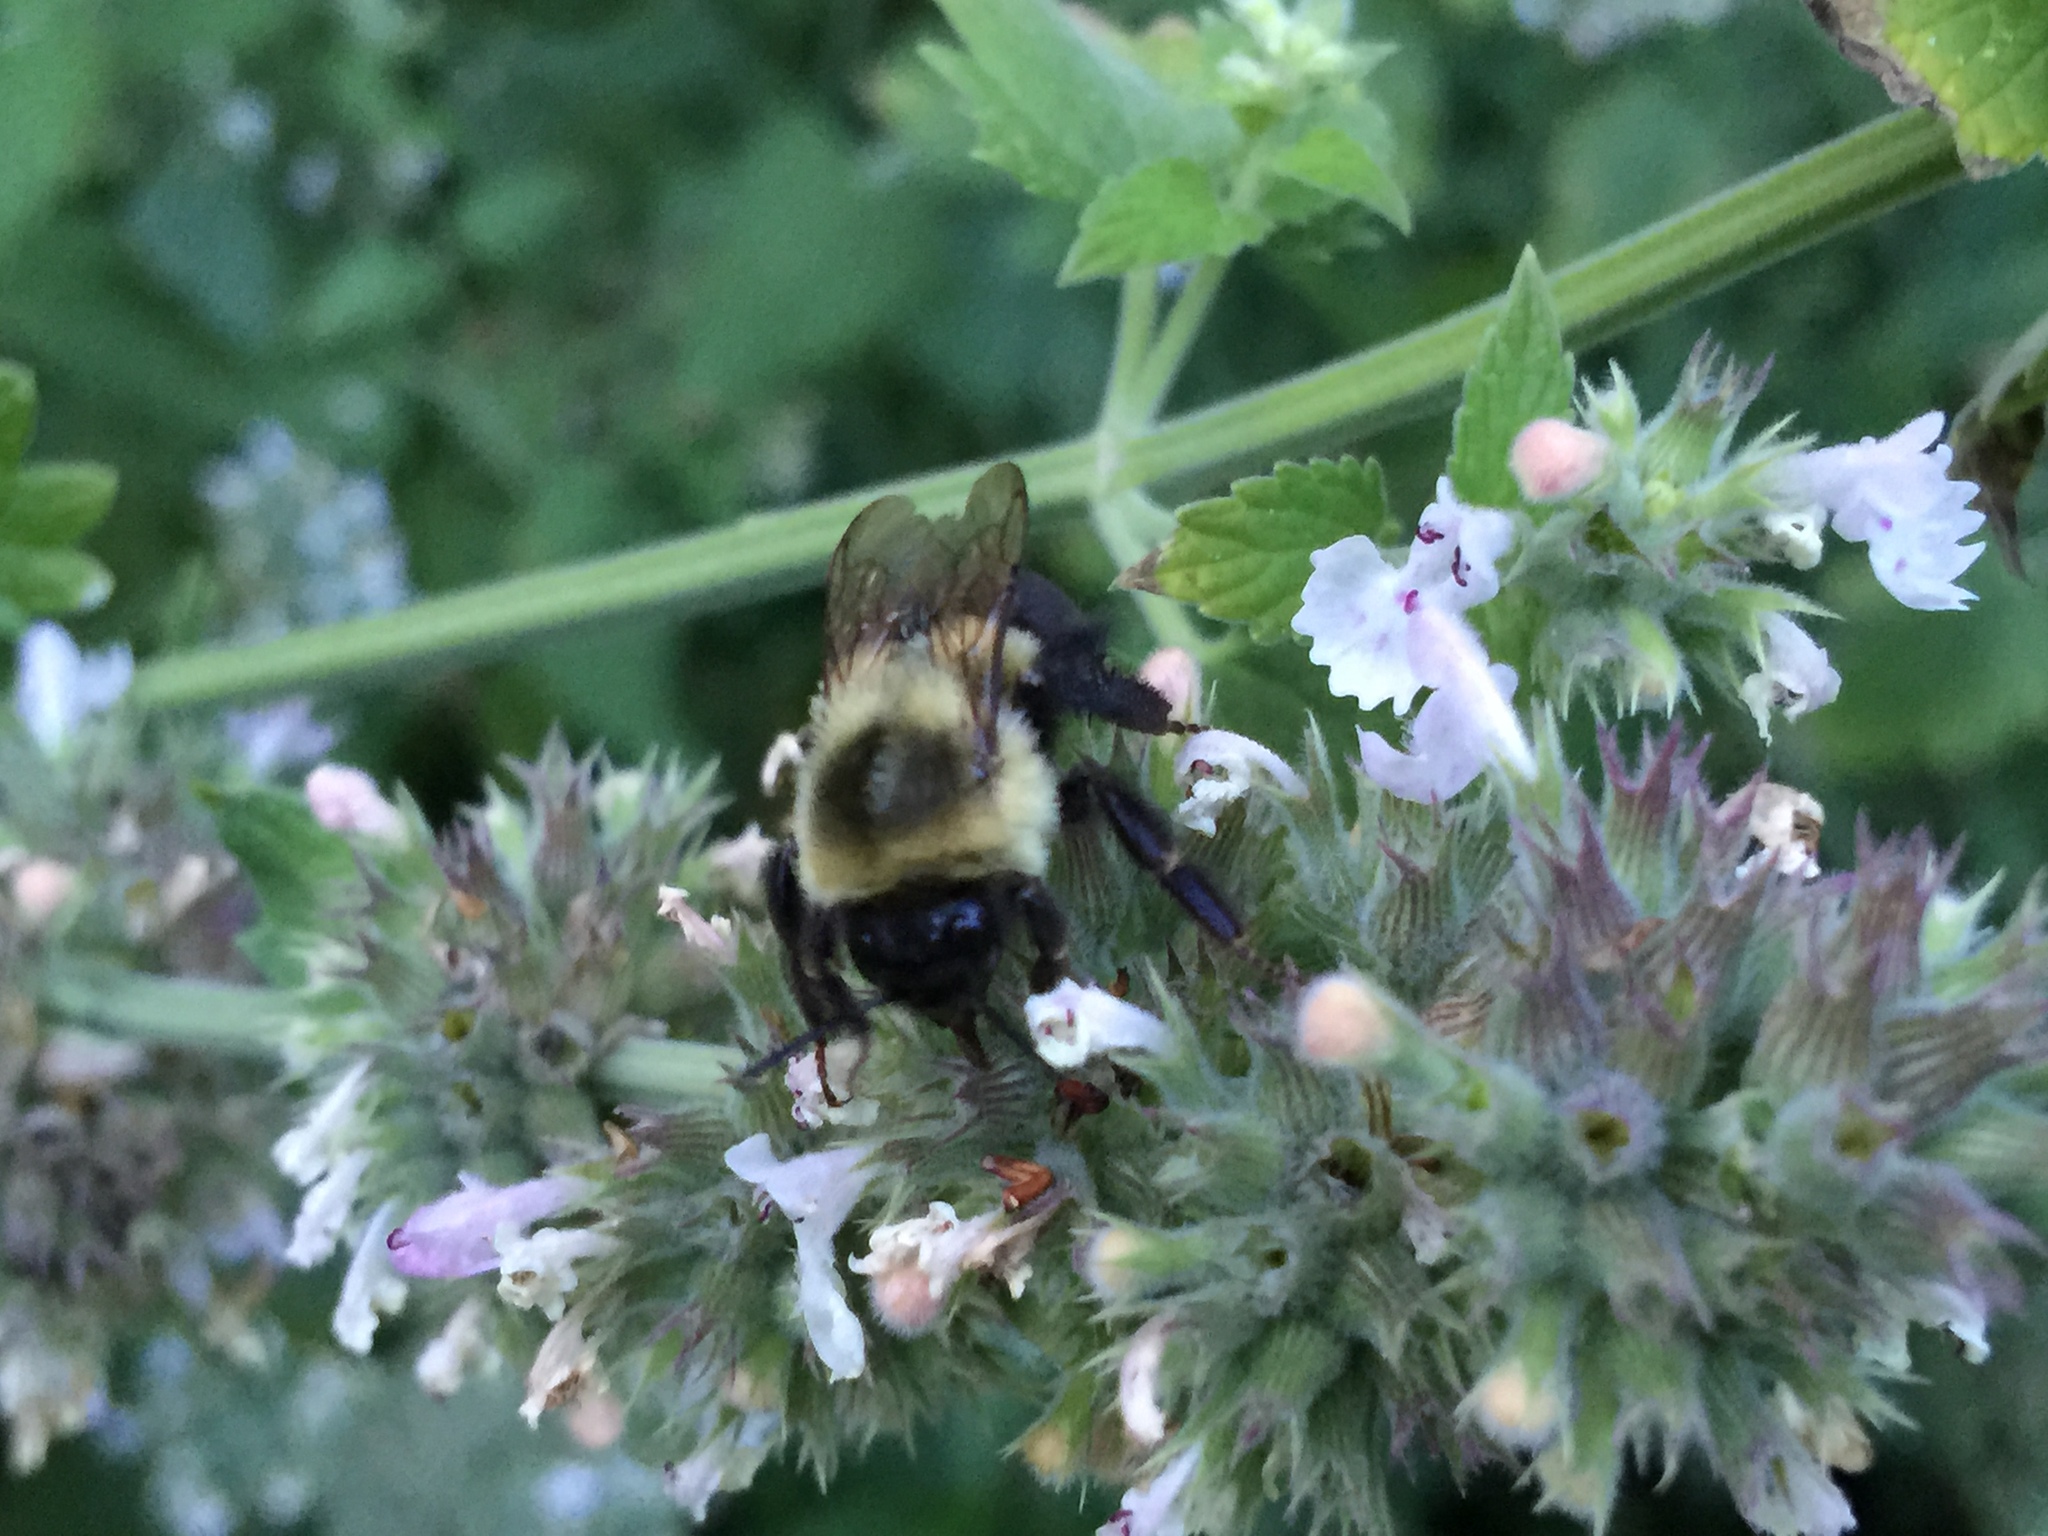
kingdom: Animalia
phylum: Arthropoda
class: Insecta
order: Hymenoptera
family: Apidae
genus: Bombus
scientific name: Bombus impatiens
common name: Common eastern bumble bee
